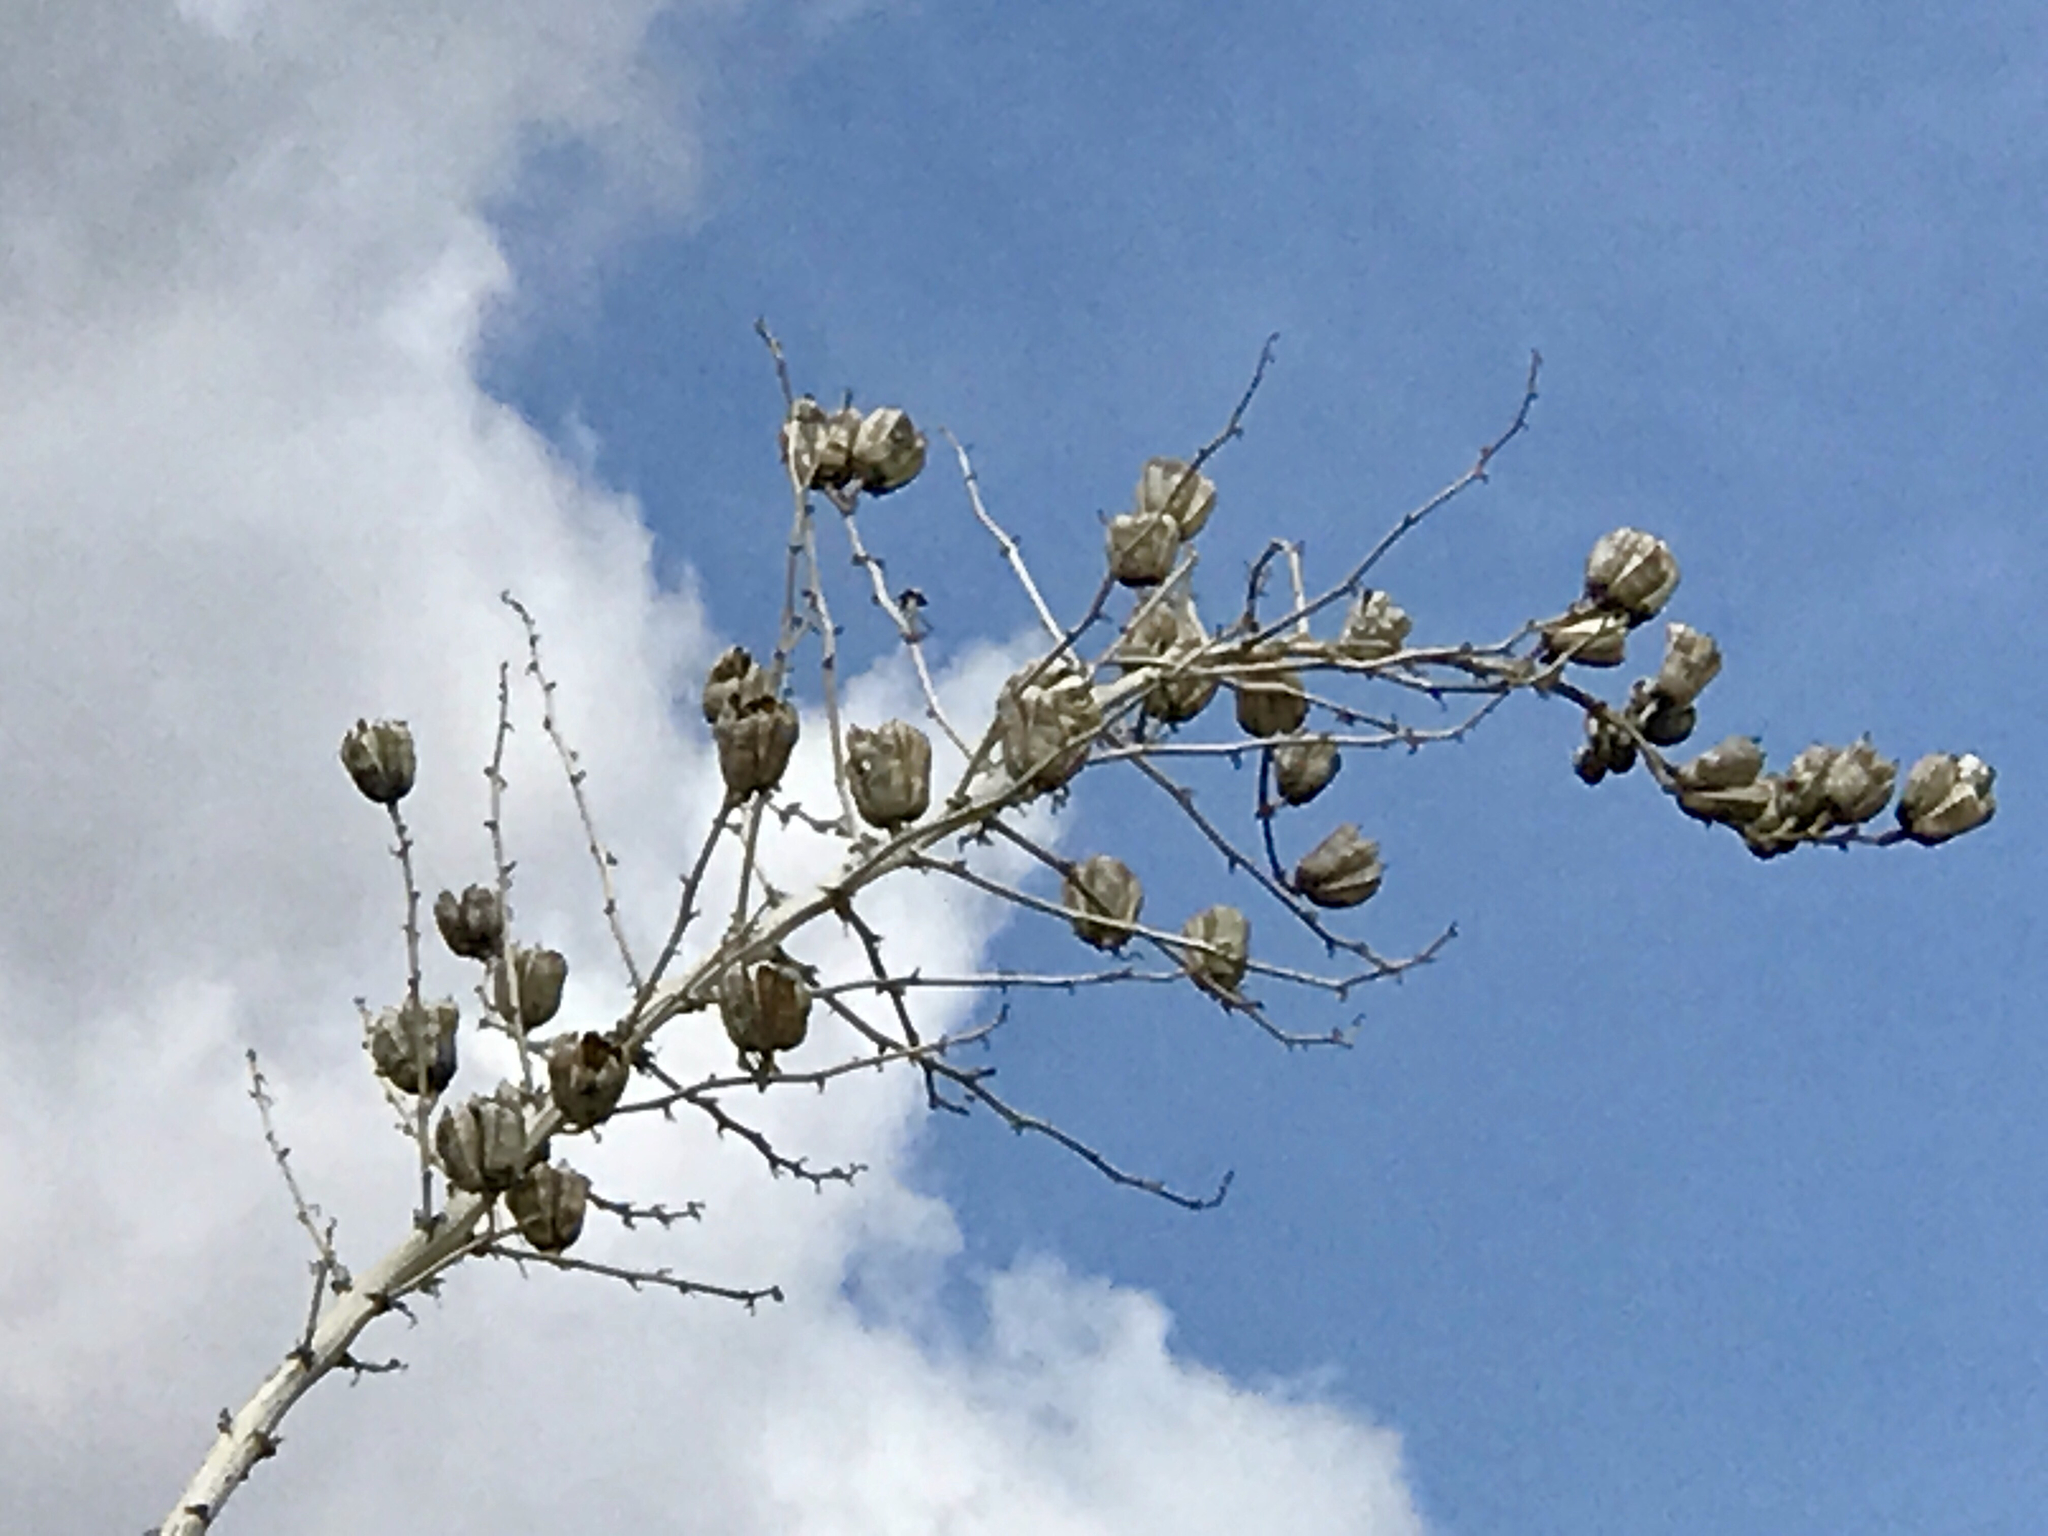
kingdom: Plantae
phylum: Tracheophyta
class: Liliopsida
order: Asparagales
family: Asparagaceae
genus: Yucca
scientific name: Yucca elata
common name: Palmella
